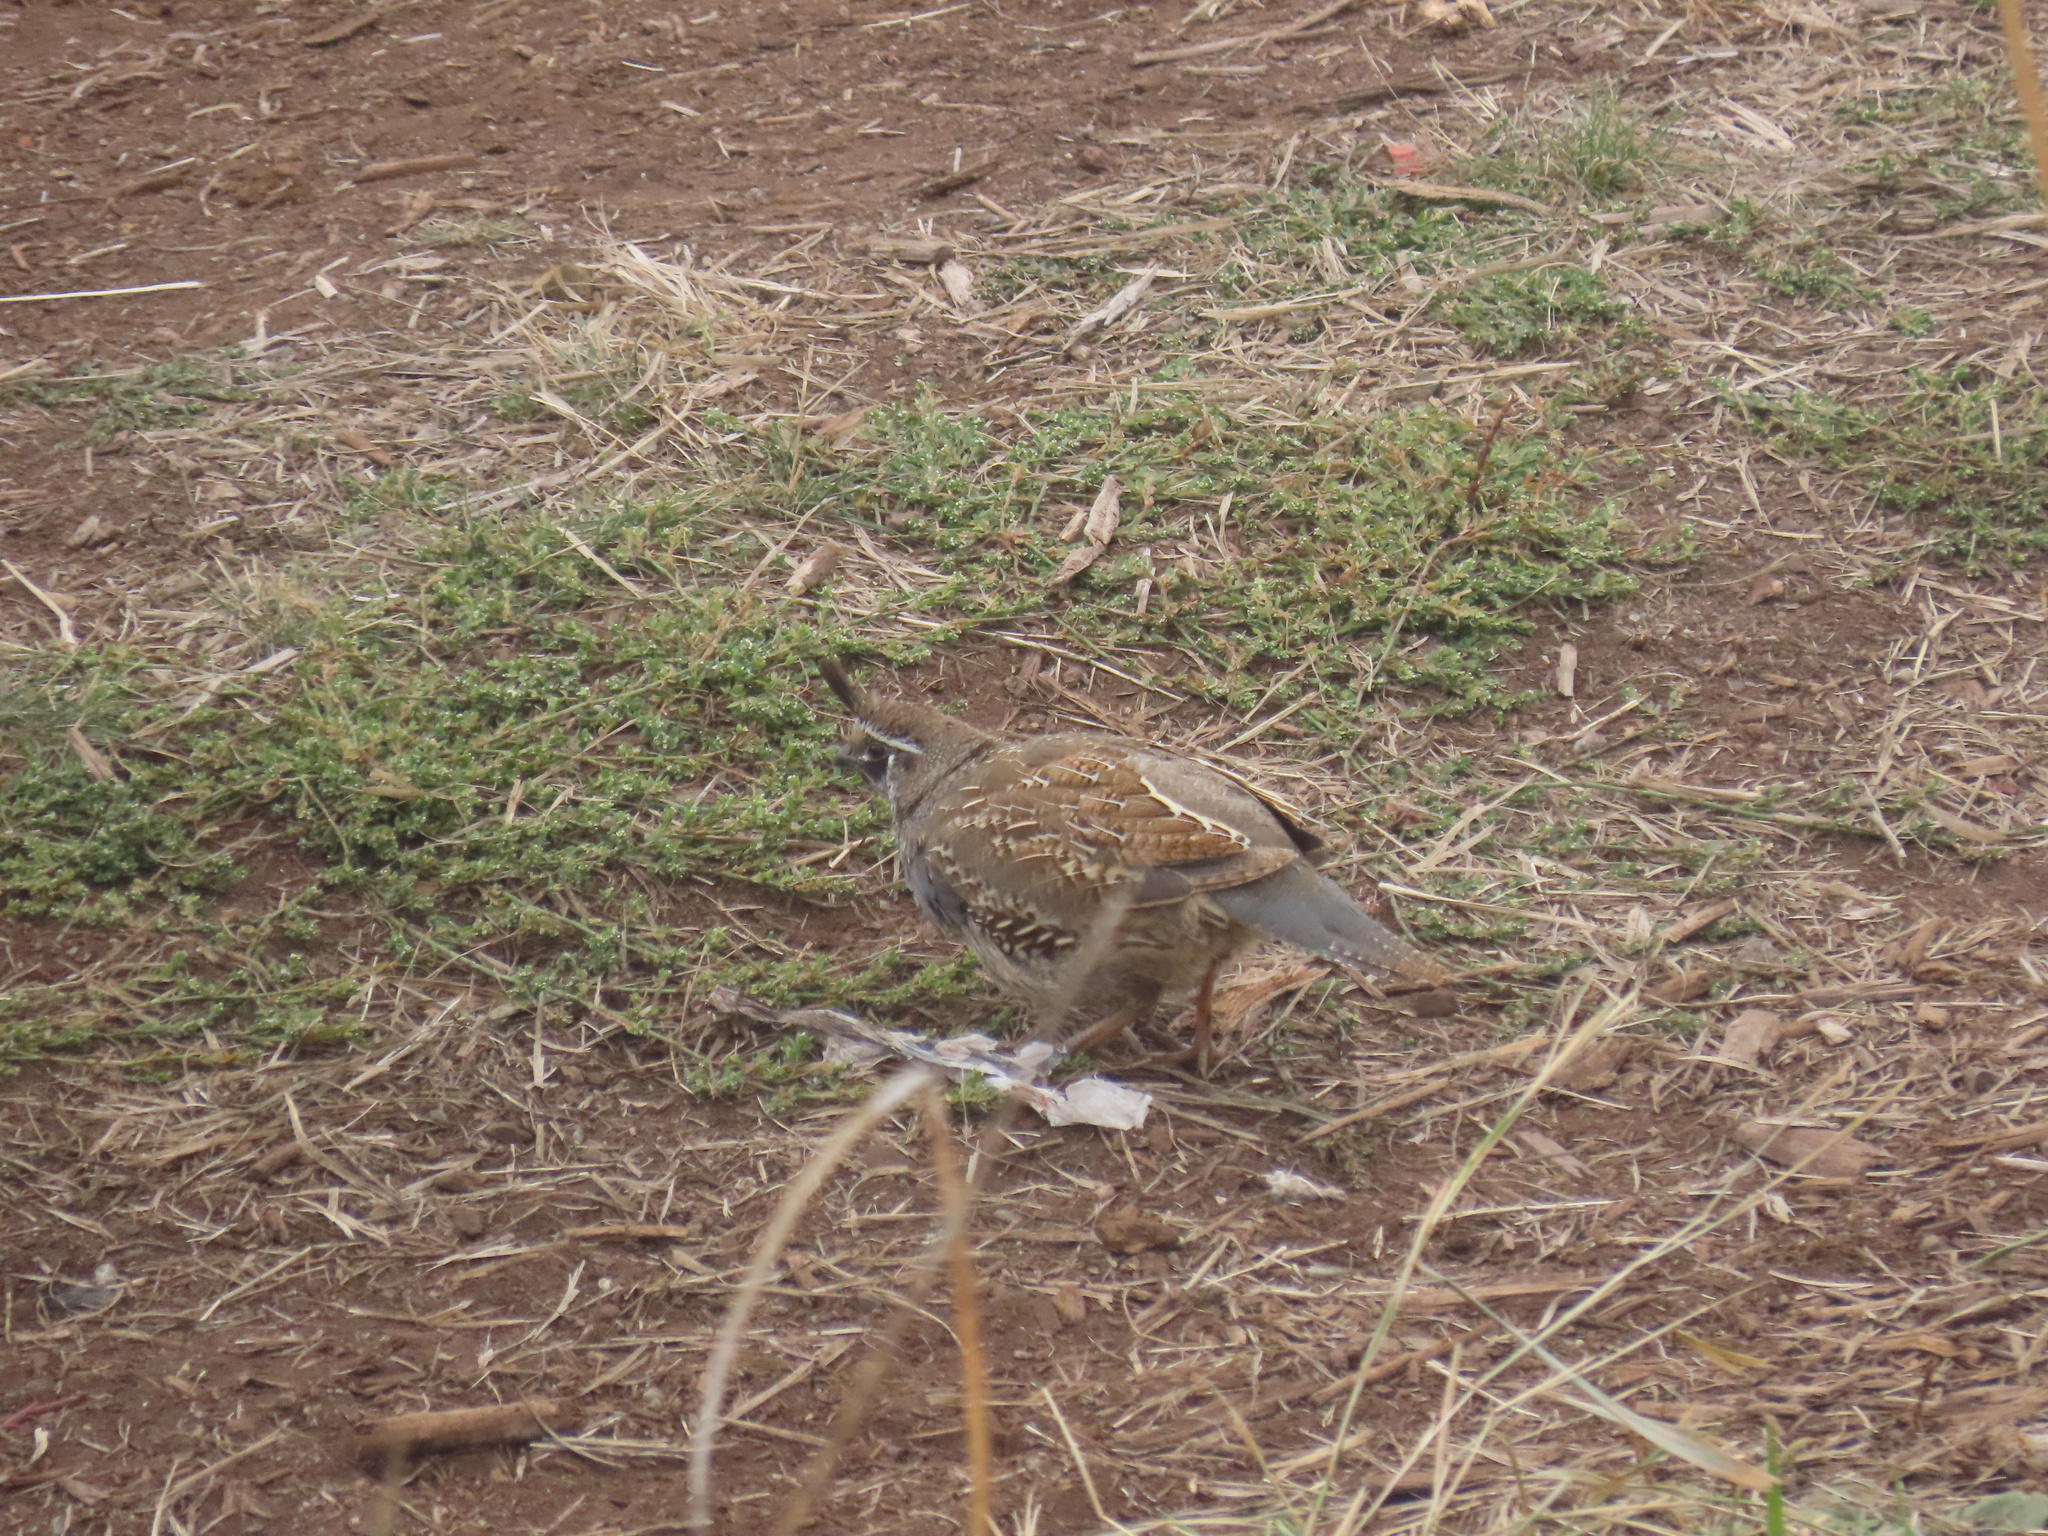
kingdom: Animalia
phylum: Chordata
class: Aves
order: Galliformes
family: Odontophoridae
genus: Callipepla
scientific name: Callipepla californica
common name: California quail
